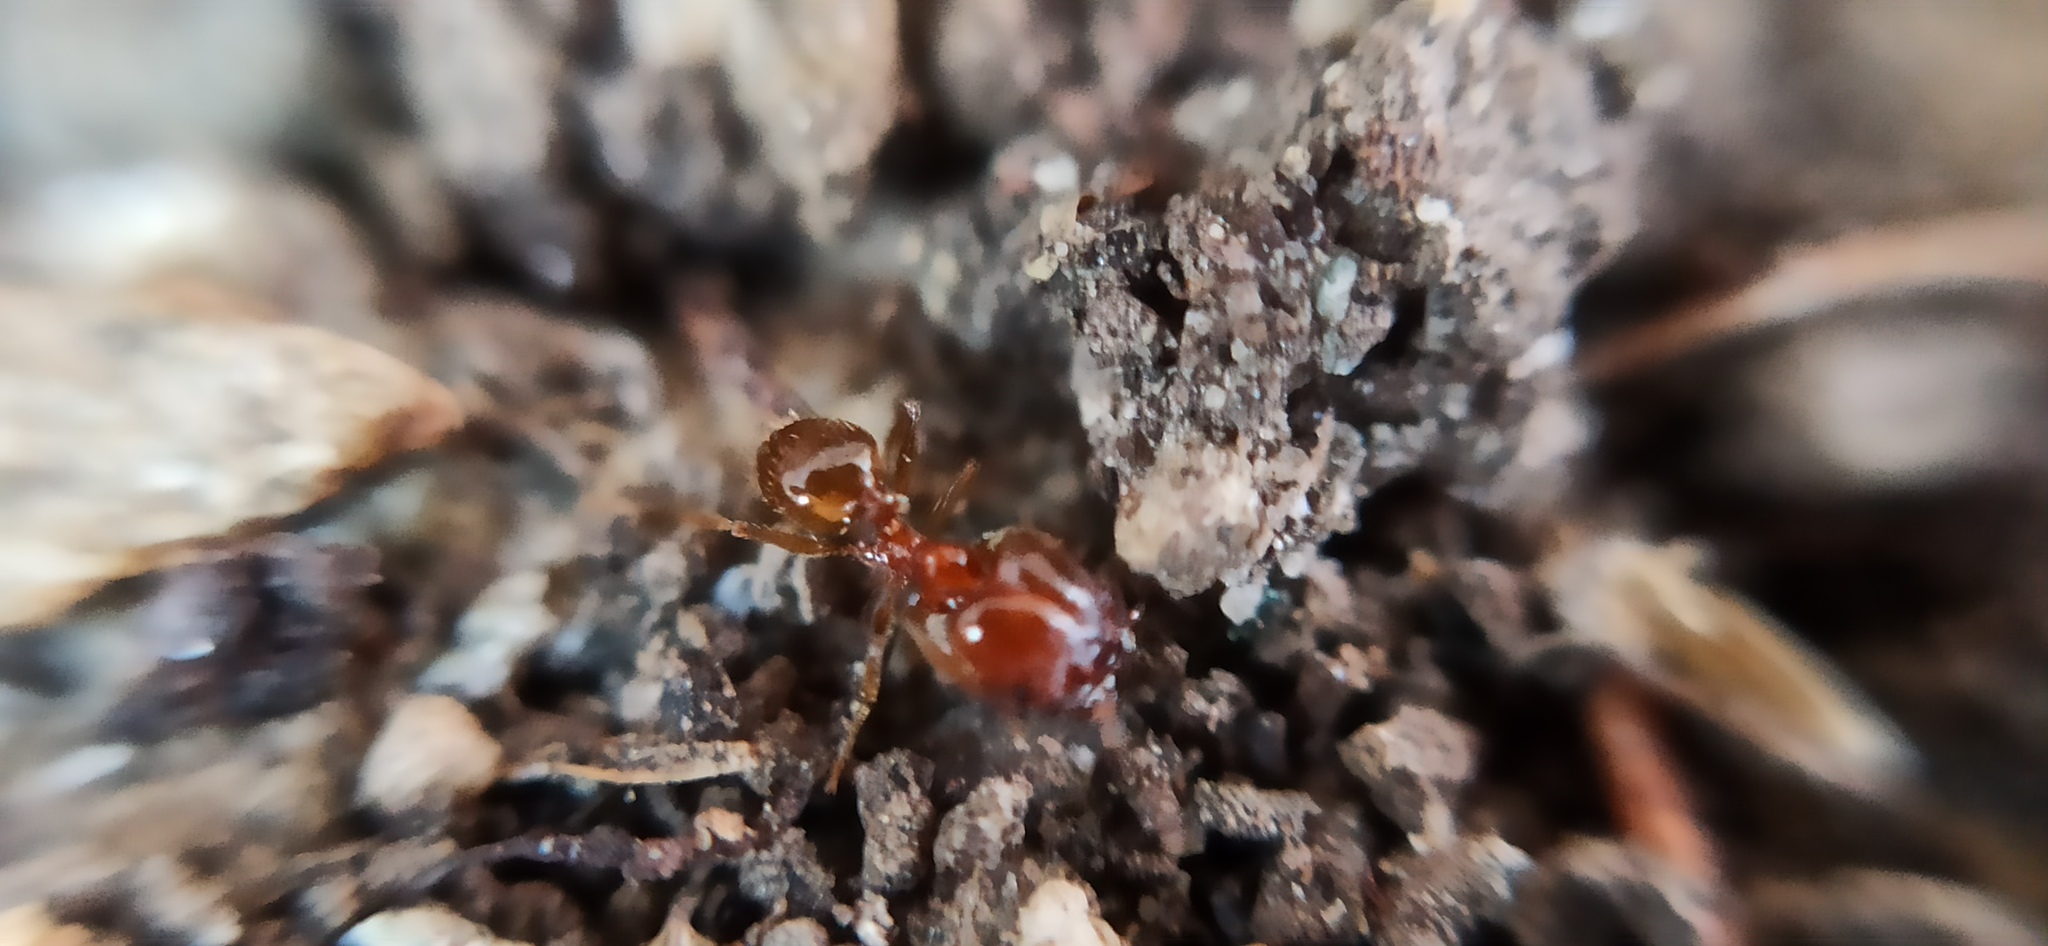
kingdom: Animalia
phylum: Arthropoda
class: Insecta
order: Hymenoptera
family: Formicidae
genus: Pheidole
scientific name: Pheidole pallidula
